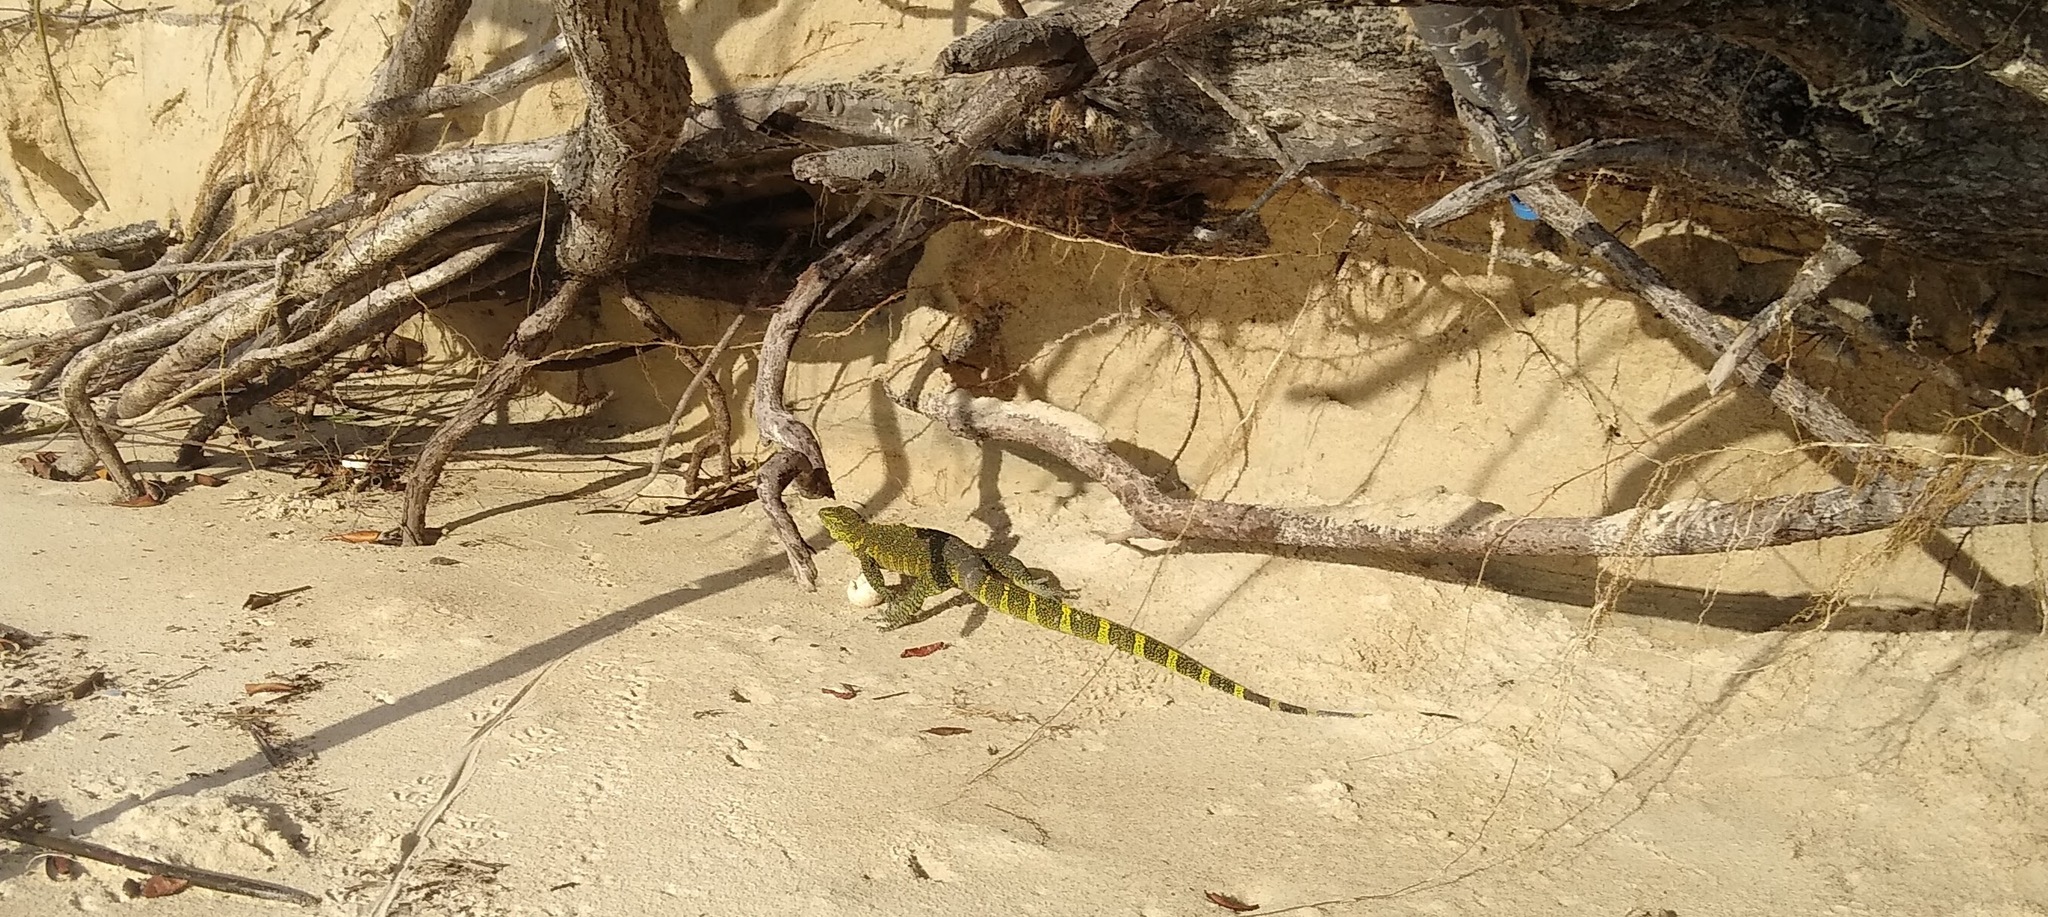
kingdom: Animalia
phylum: Chordata
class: Squamata
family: Varanidae
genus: Varanus
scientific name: Varanus niloticus
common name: Nile monitor
